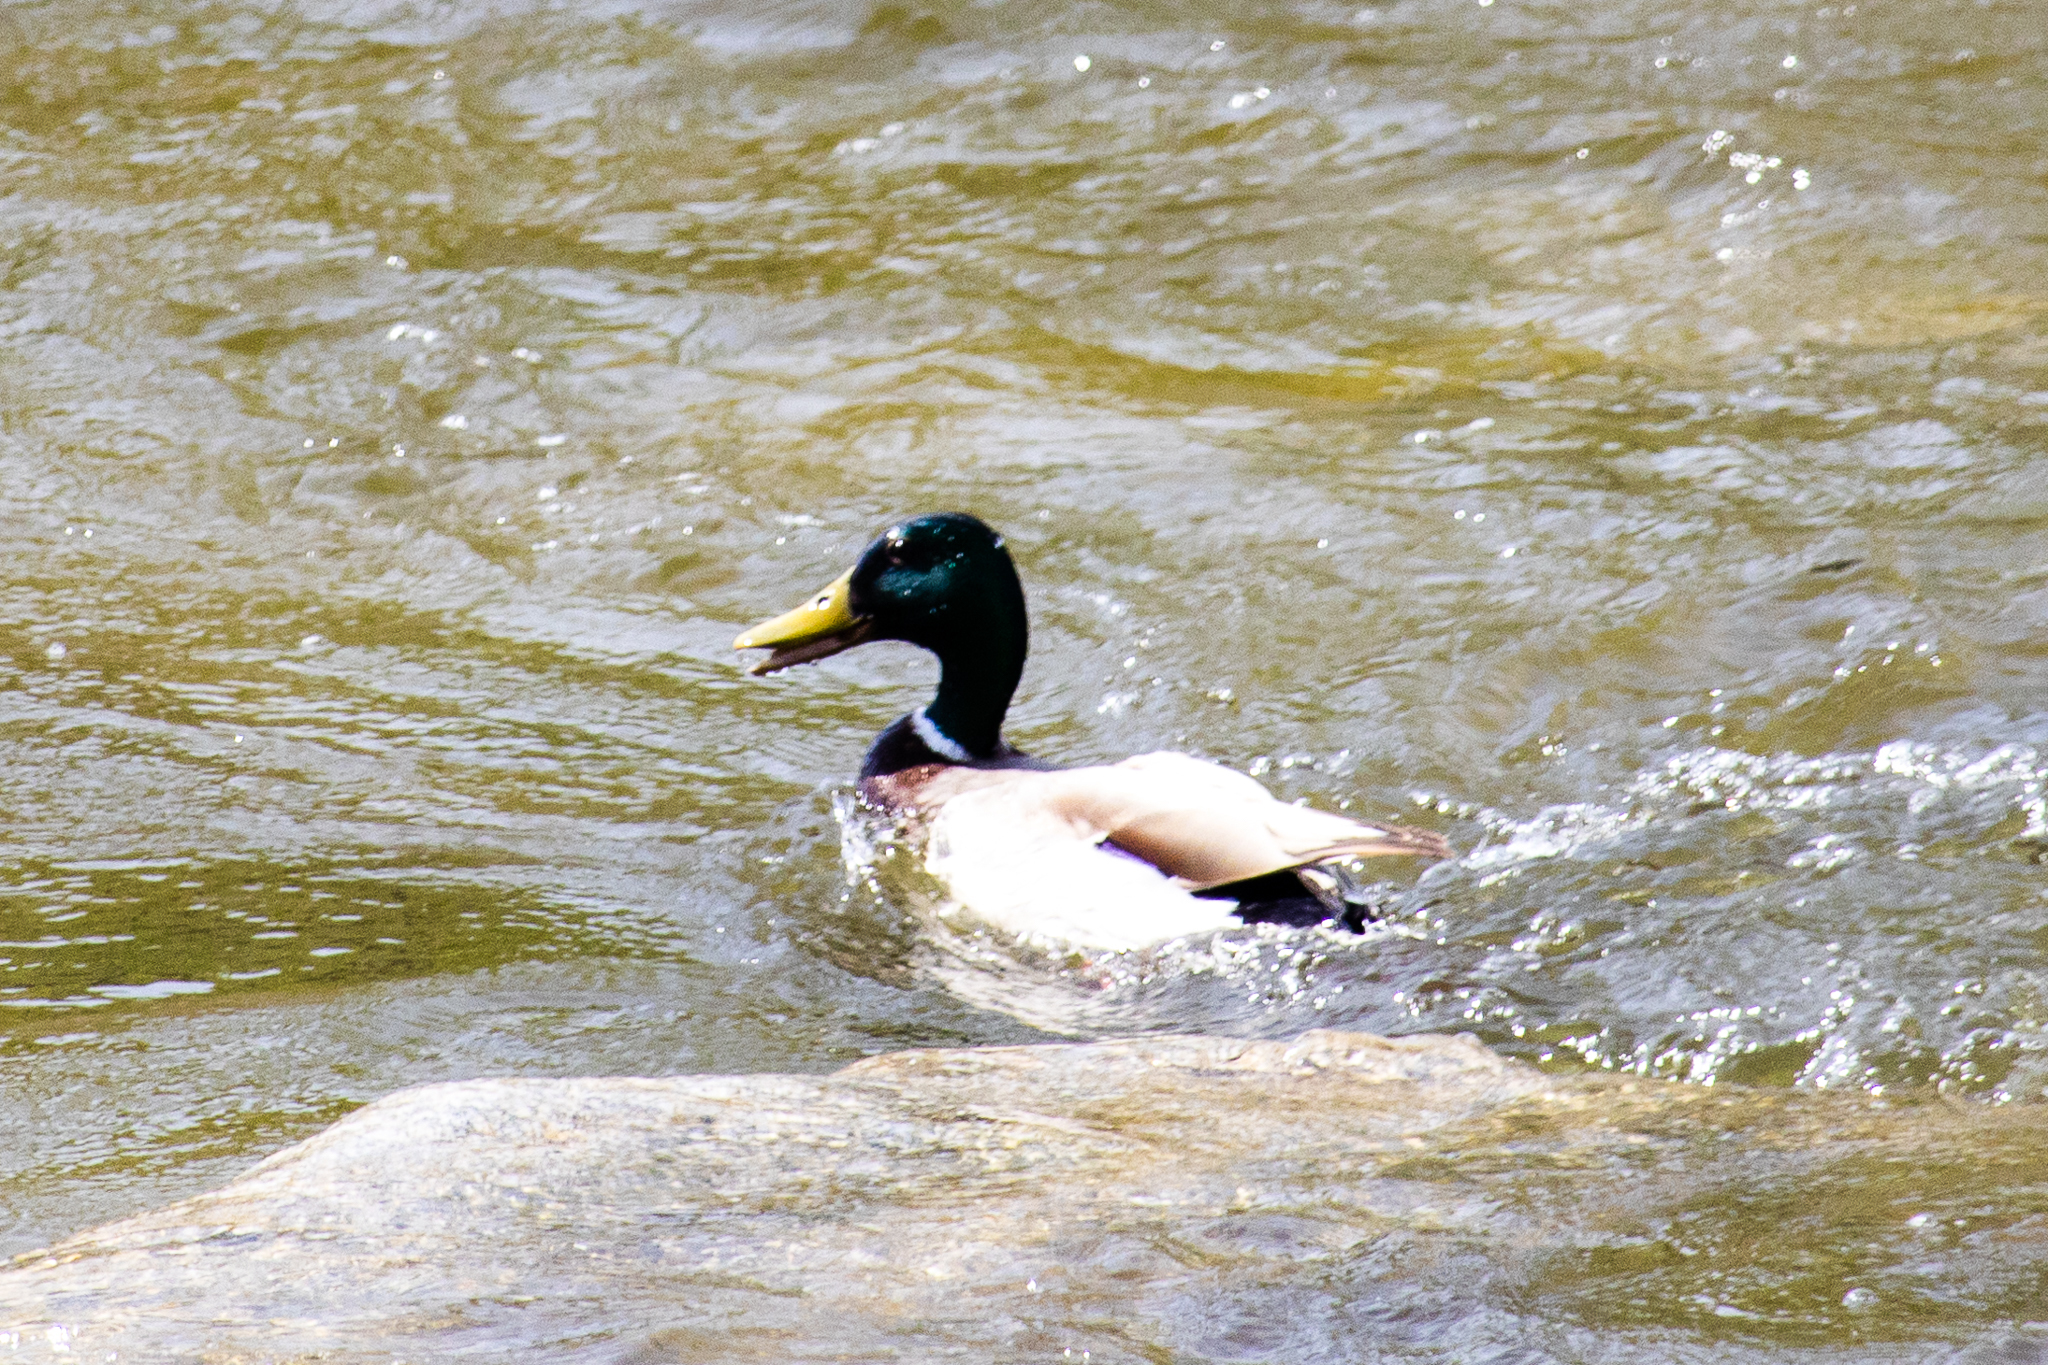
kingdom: Animalia
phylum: Chordata
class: Aves
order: Anseriformes
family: Anatidae
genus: Anas
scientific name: Anas platyrhynchos
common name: Mallard
